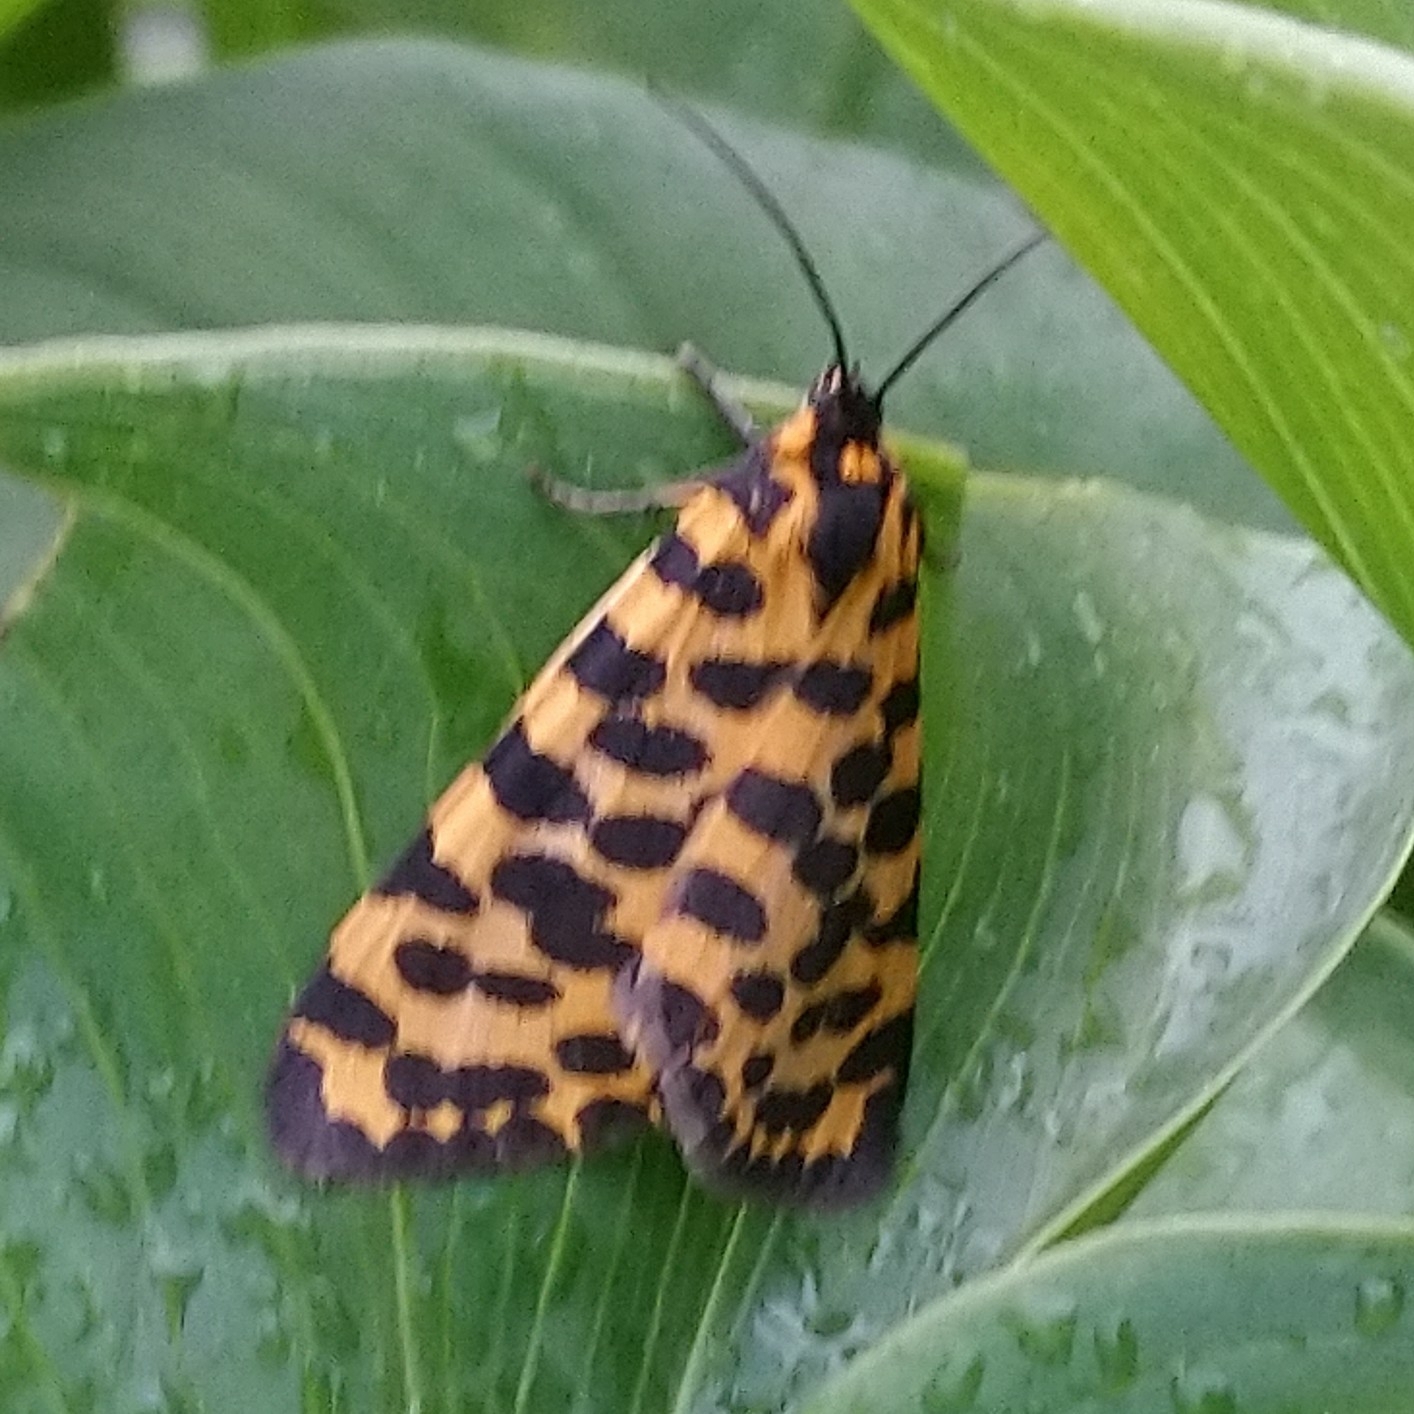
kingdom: Animalia
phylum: Arthropoda
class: Insecta
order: Lepidoptera
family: Geometridae
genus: Zerenopsis
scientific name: Zerenopsis lepida
